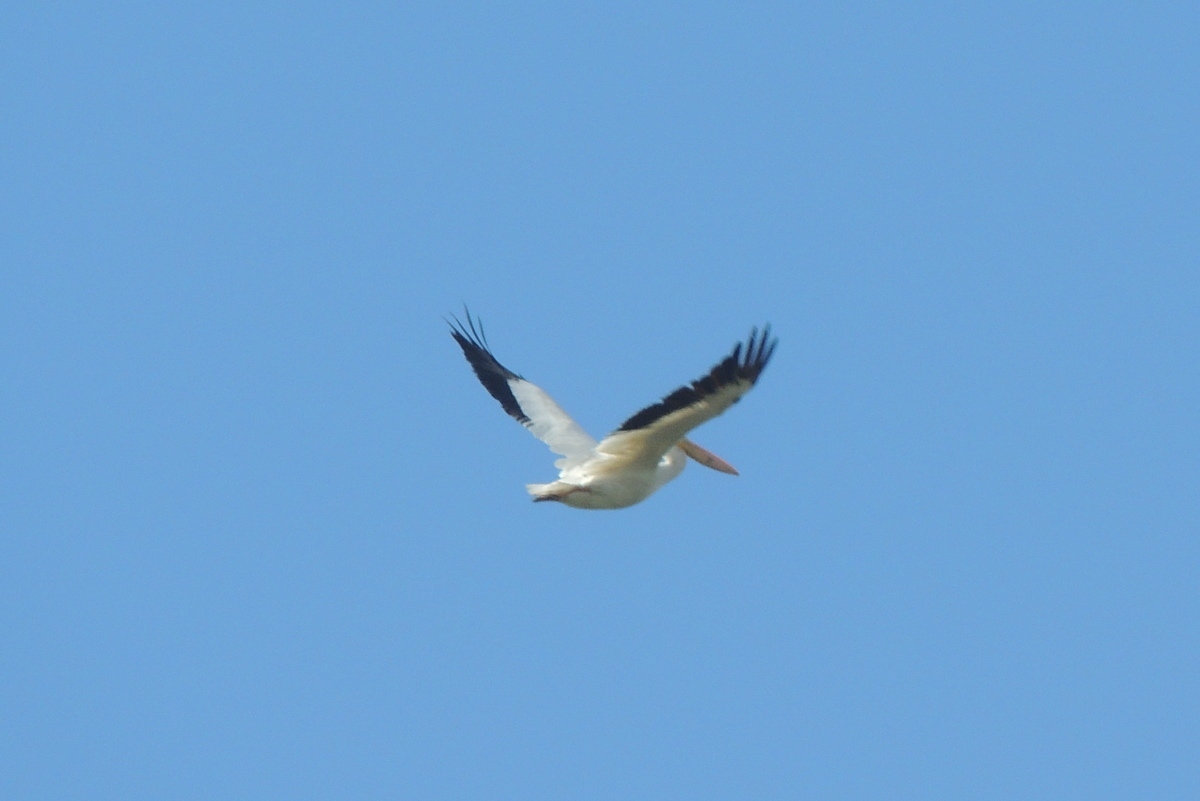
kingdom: Animalia
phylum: Chordata
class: Aves
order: Pelecaniformes
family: Pelecanidae
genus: Pelecanus
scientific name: Pelecanus erythrorhynchos
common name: American white pelican
